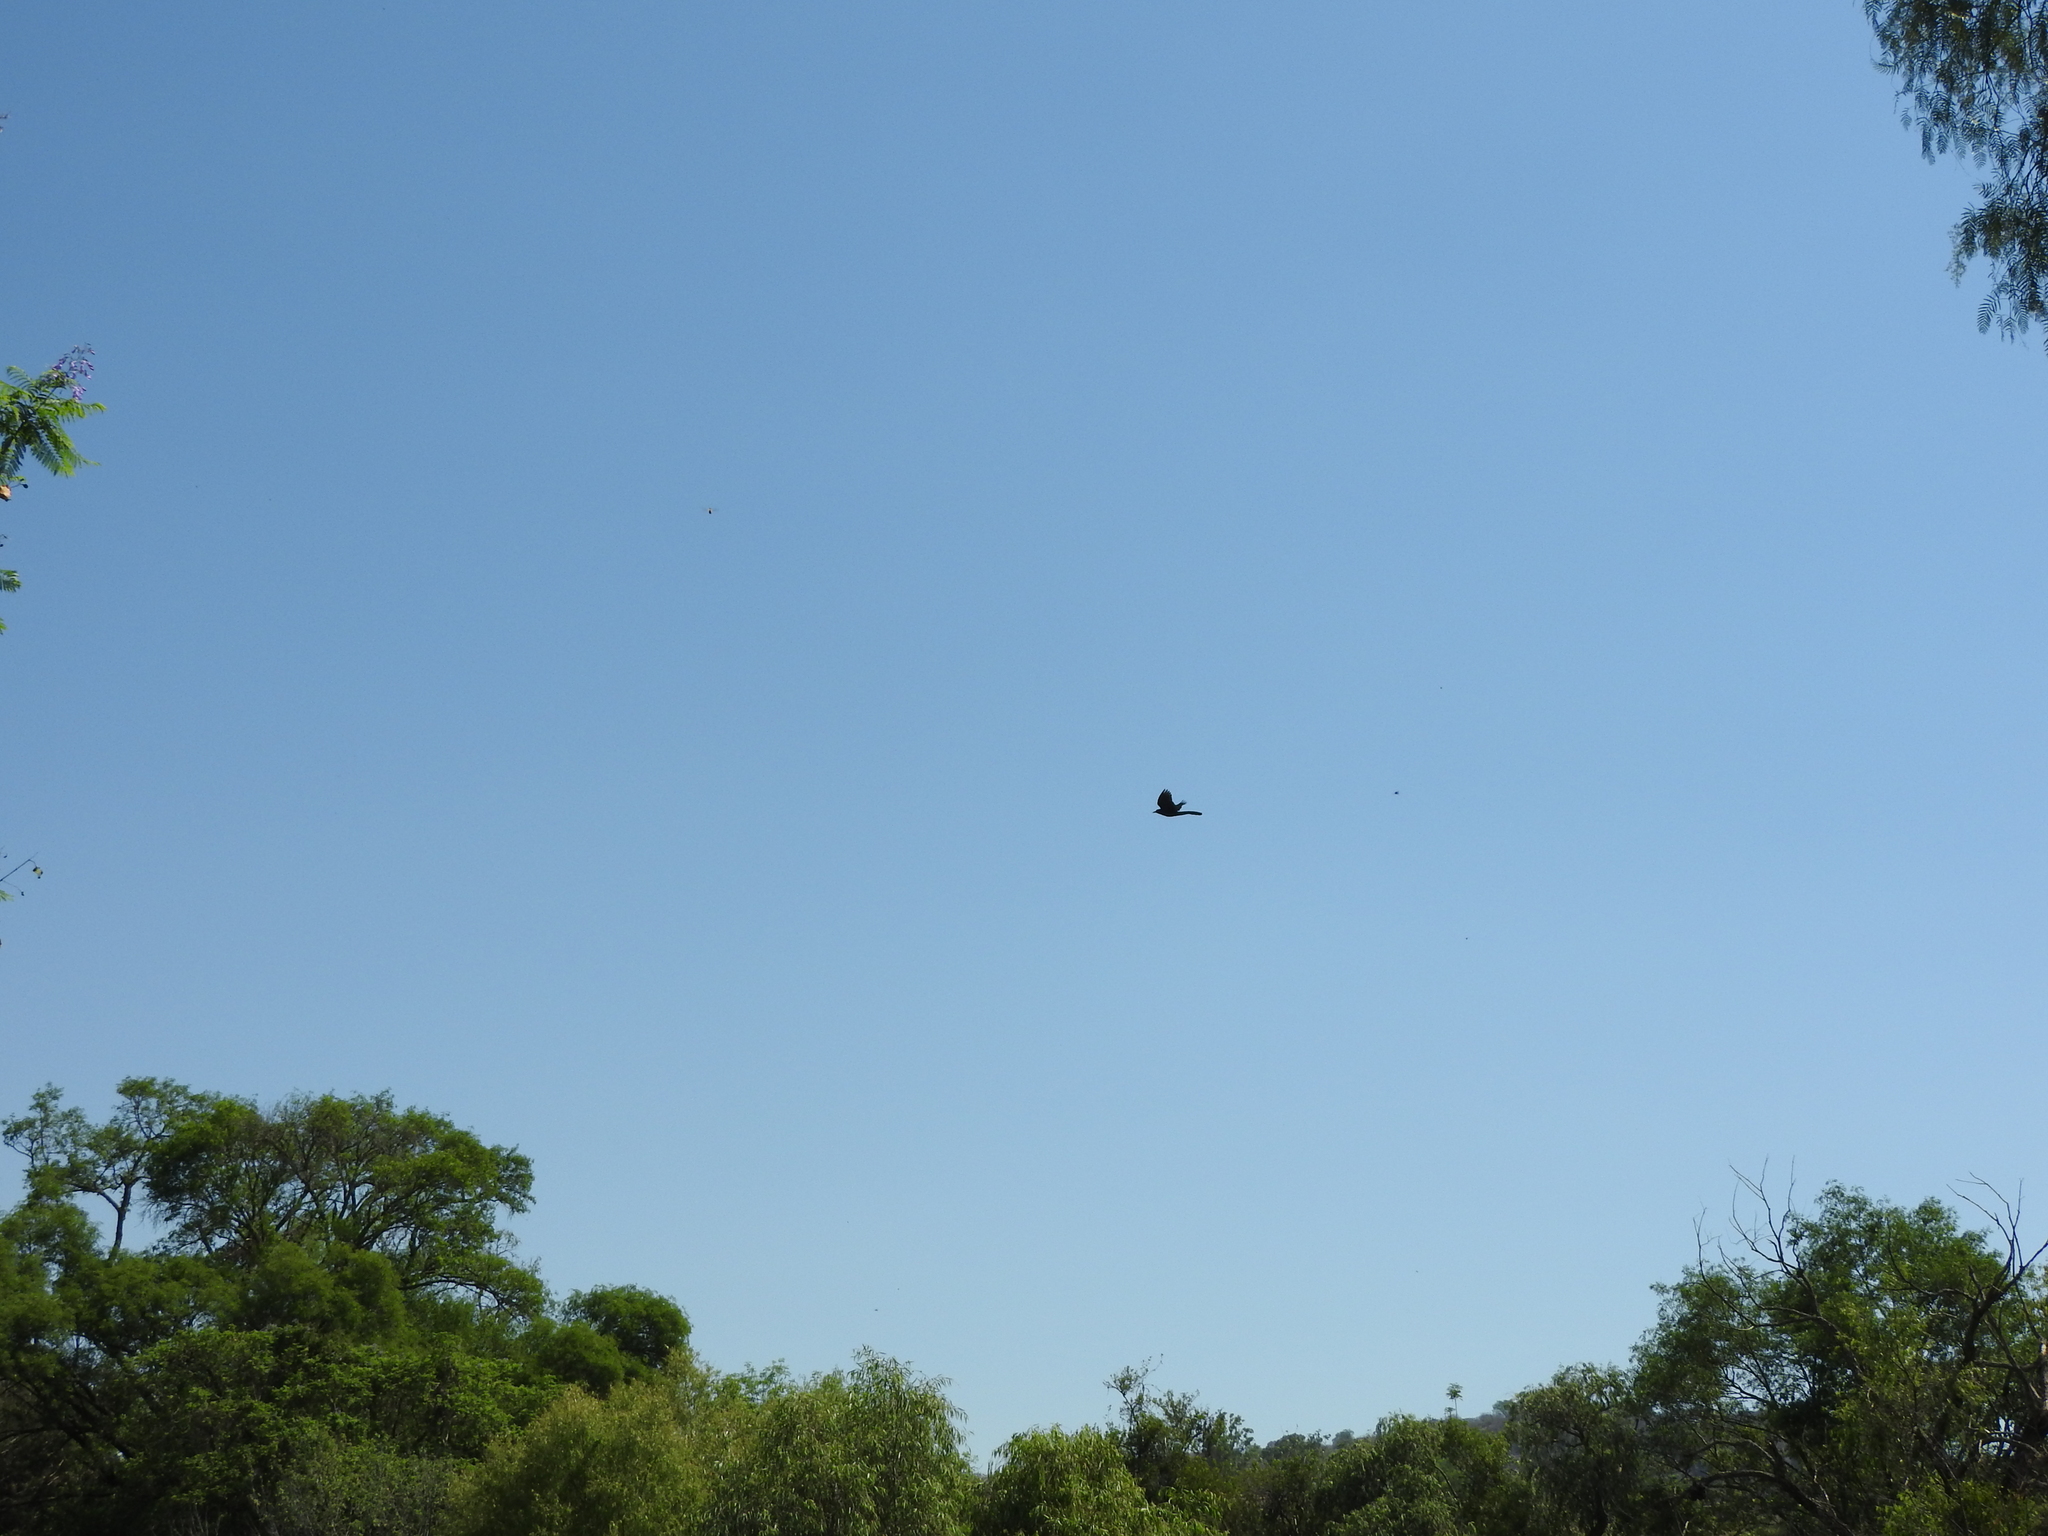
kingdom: Animalia
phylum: Chordata
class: Aves
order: Passeriformes
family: Icteridae
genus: Quiscalus
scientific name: Quiscalus mexicanus
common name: Great-tailed grackle
